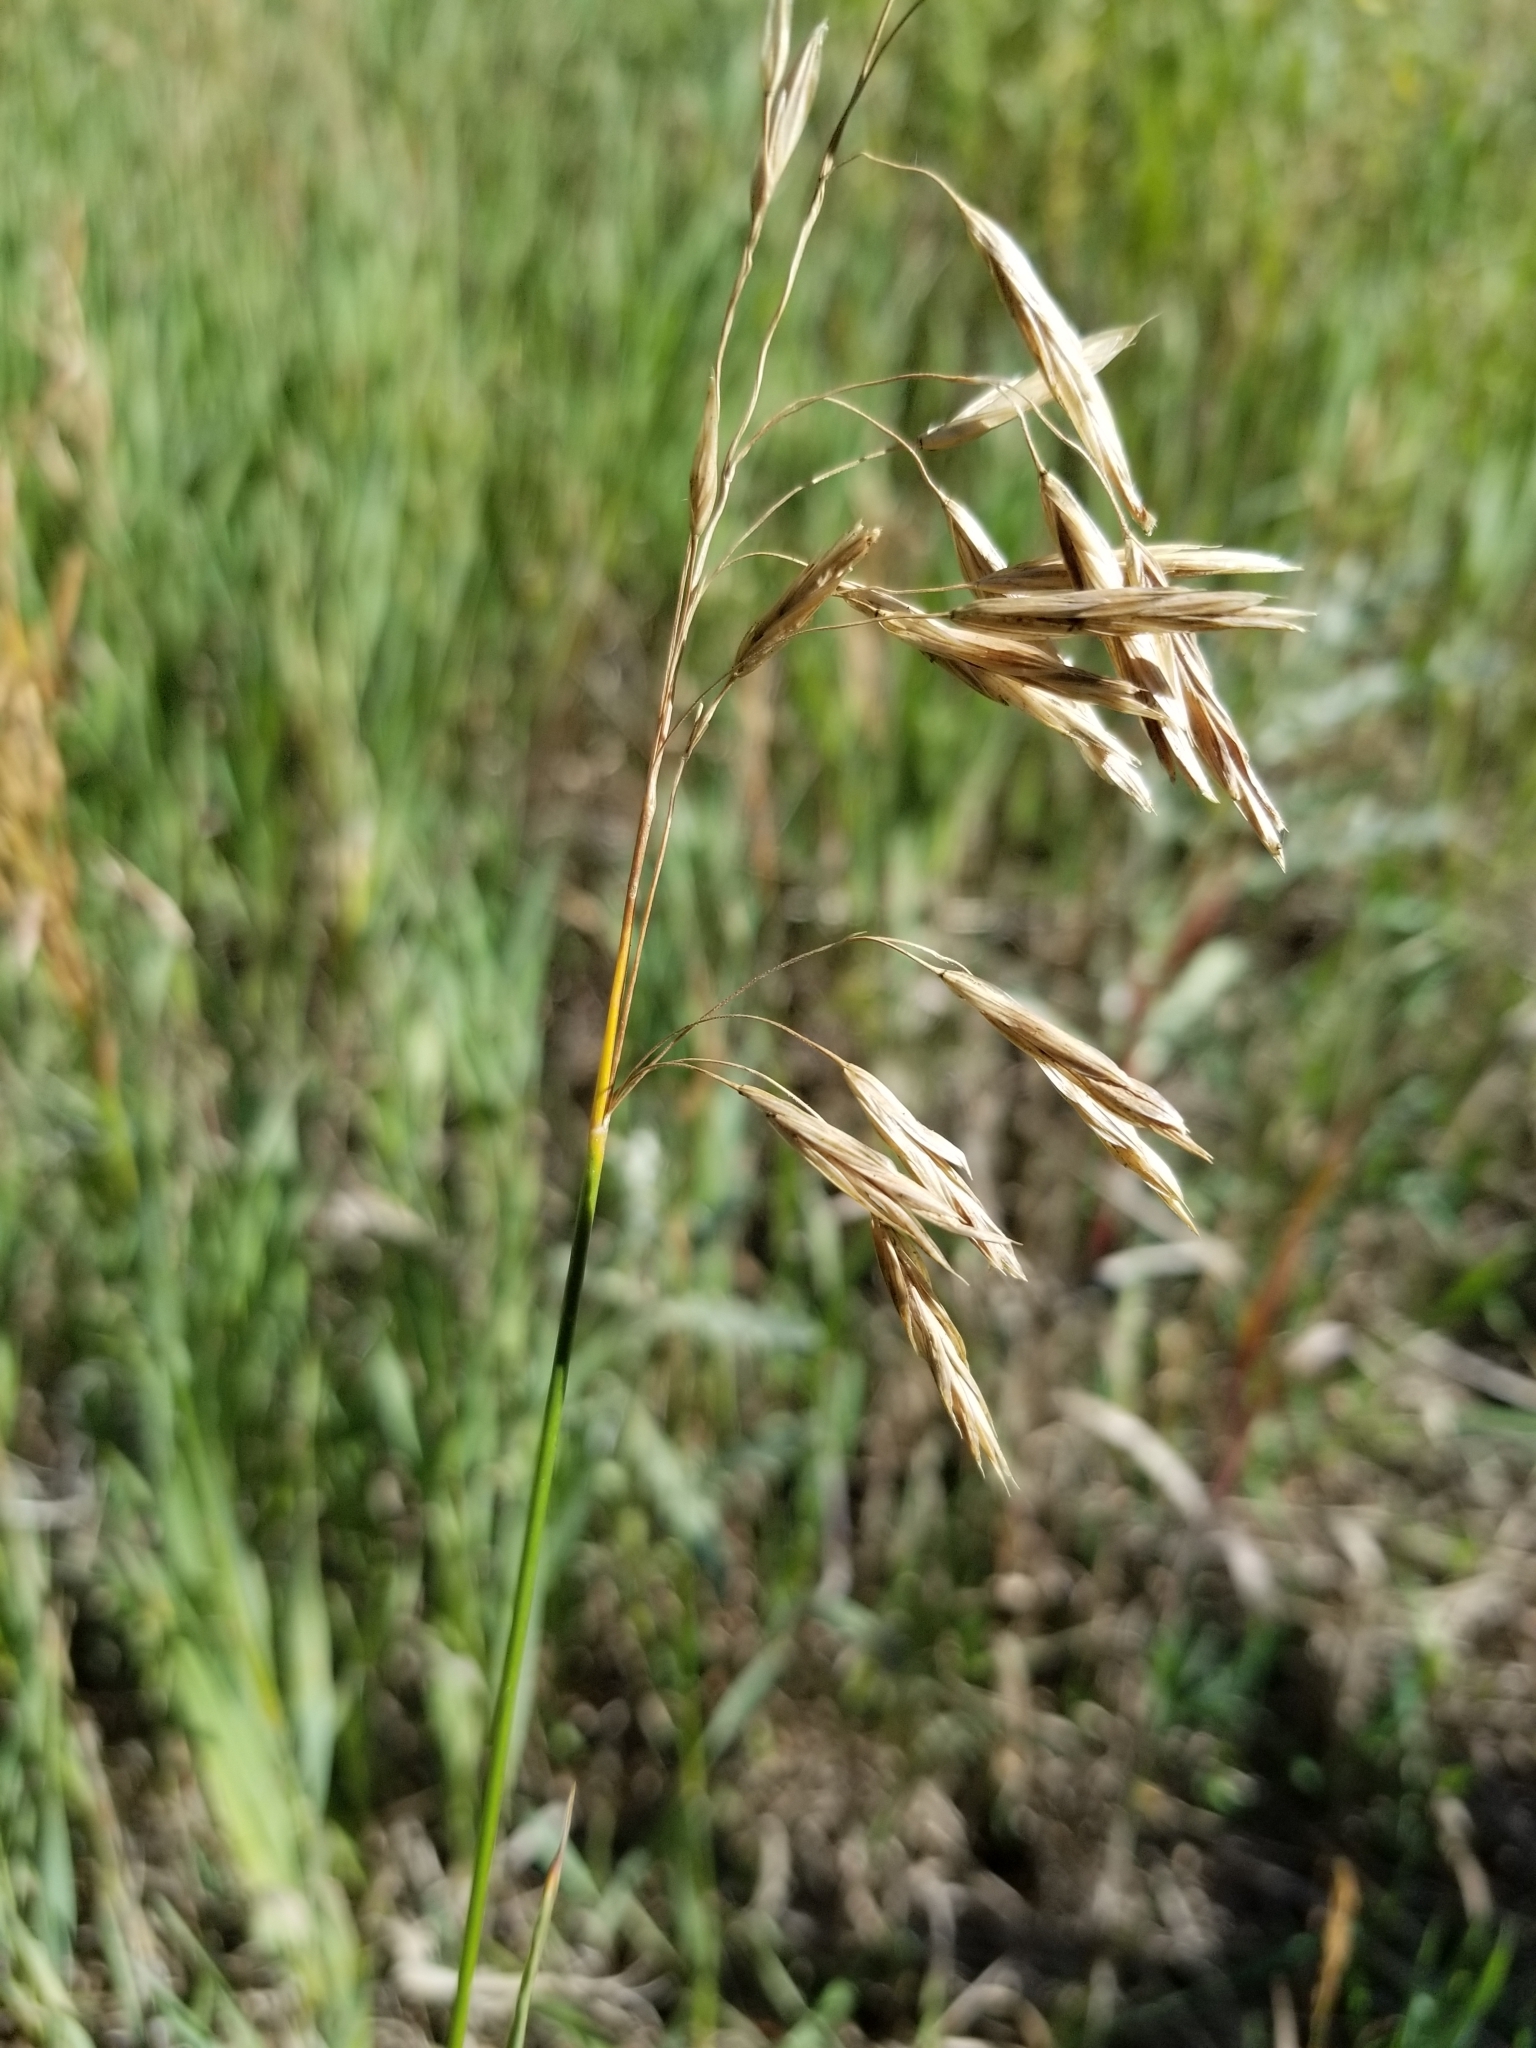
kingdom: Plantae
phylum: Tracheophyta
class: Liliopsida
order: Poales
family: Poaceae
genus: Bromus
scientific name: Bromus inermis
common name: Smooth brome
